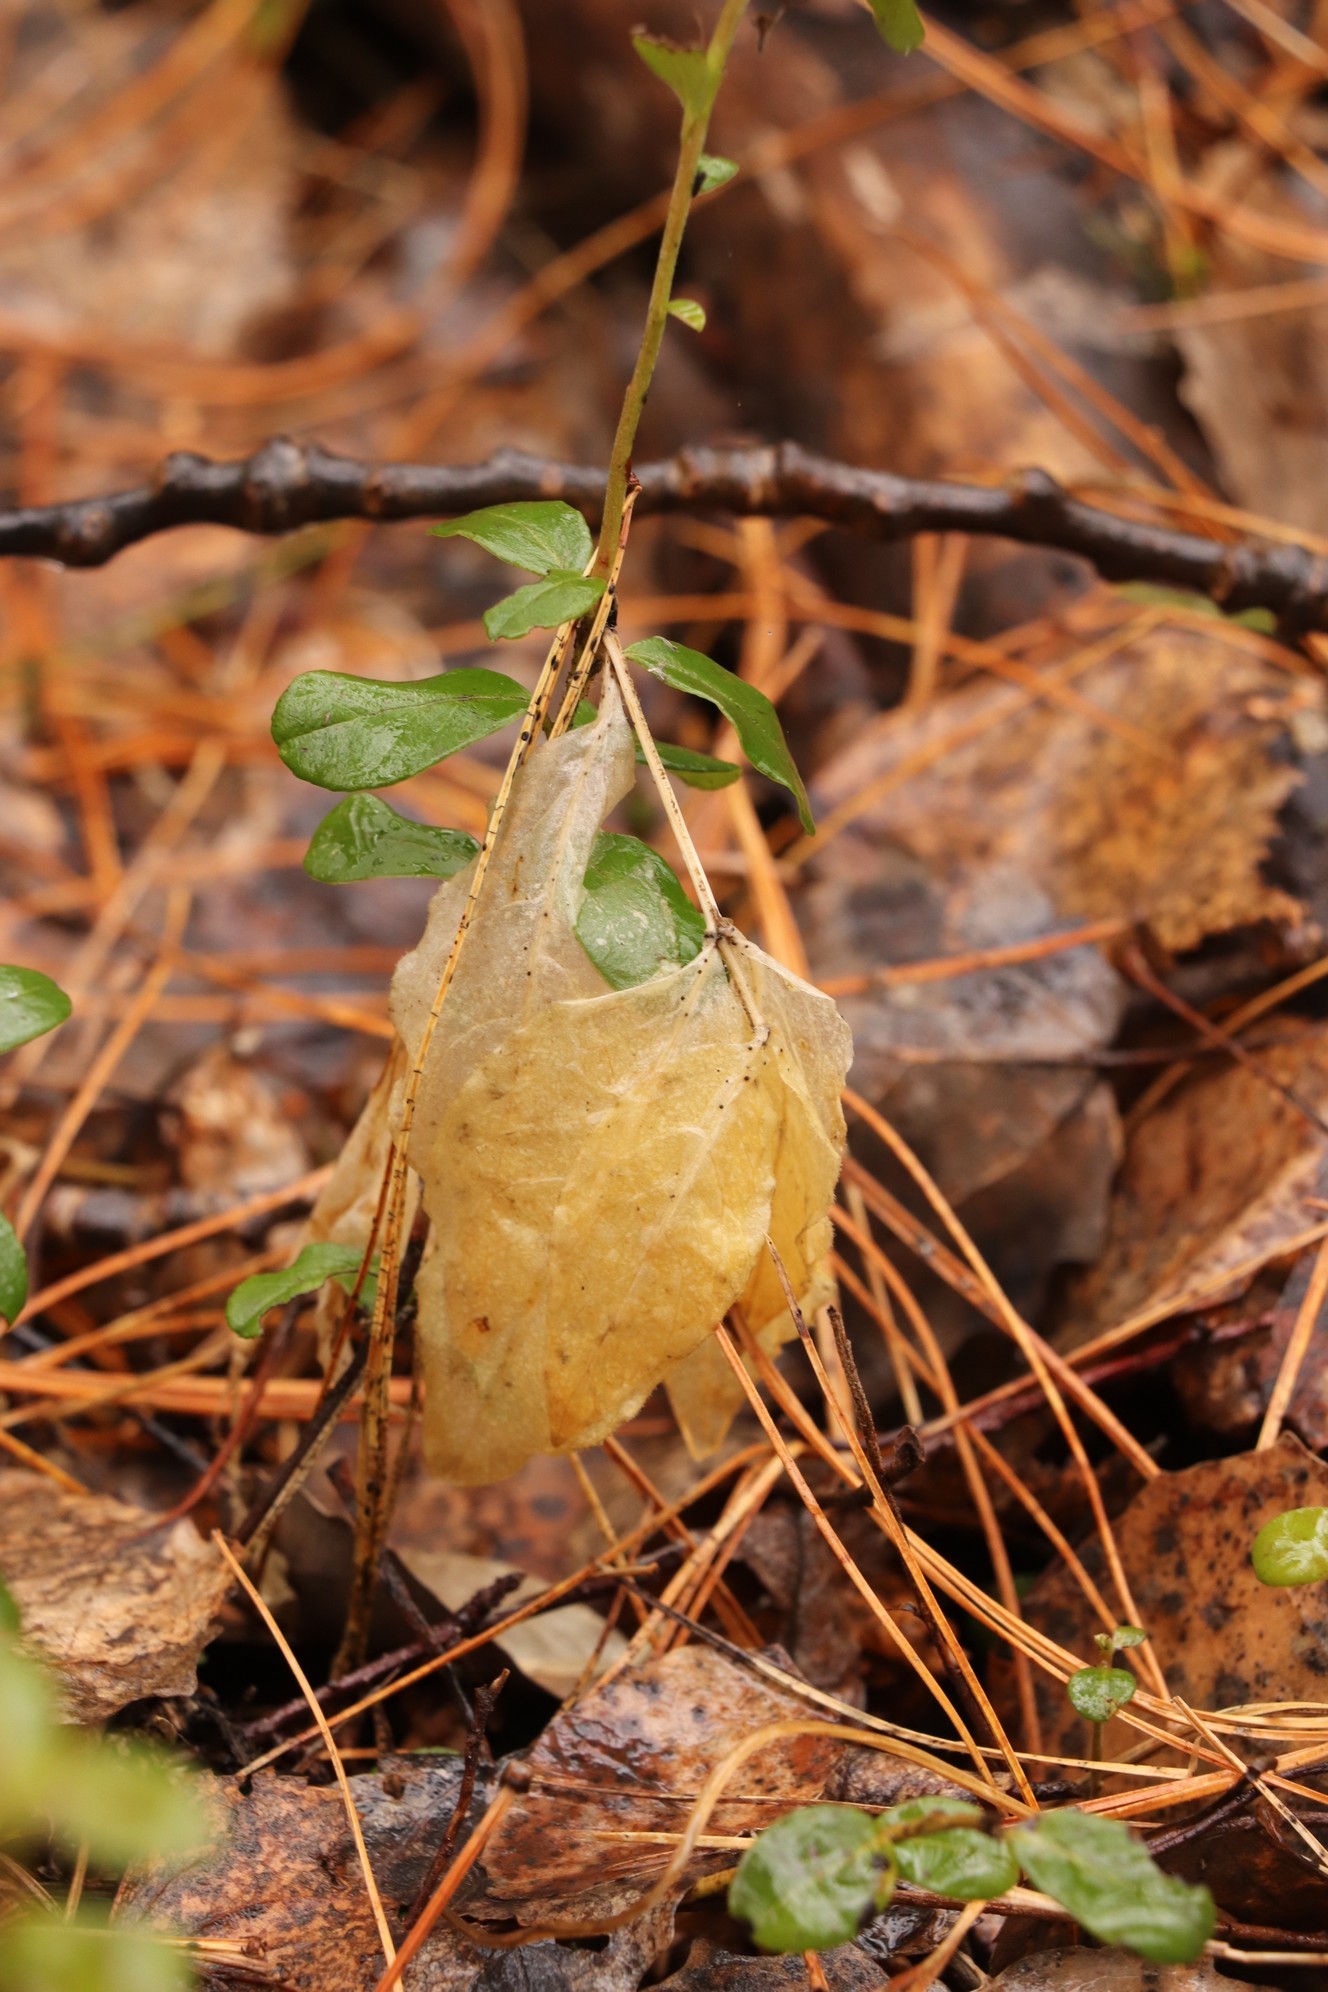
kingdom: Plantae
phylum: Tracheophyta
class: Magnoliopsida
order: Caryophyllales
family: Caryophyllaceae
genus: Stellaria
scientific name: Stellaria bungeana
